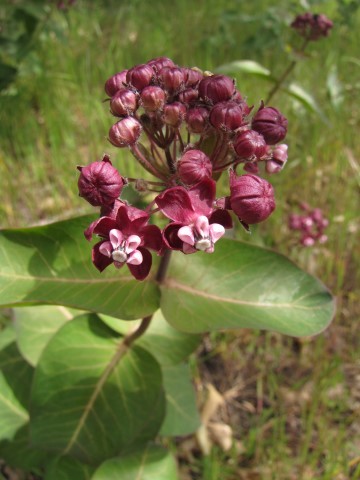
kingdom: Plantae
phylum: Tracheophyta
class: Magnoliopsida
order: Gentianales
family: Apocynaceae
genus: Asclepias
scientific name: Asclepias cordifolia
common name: Purple milkweed
